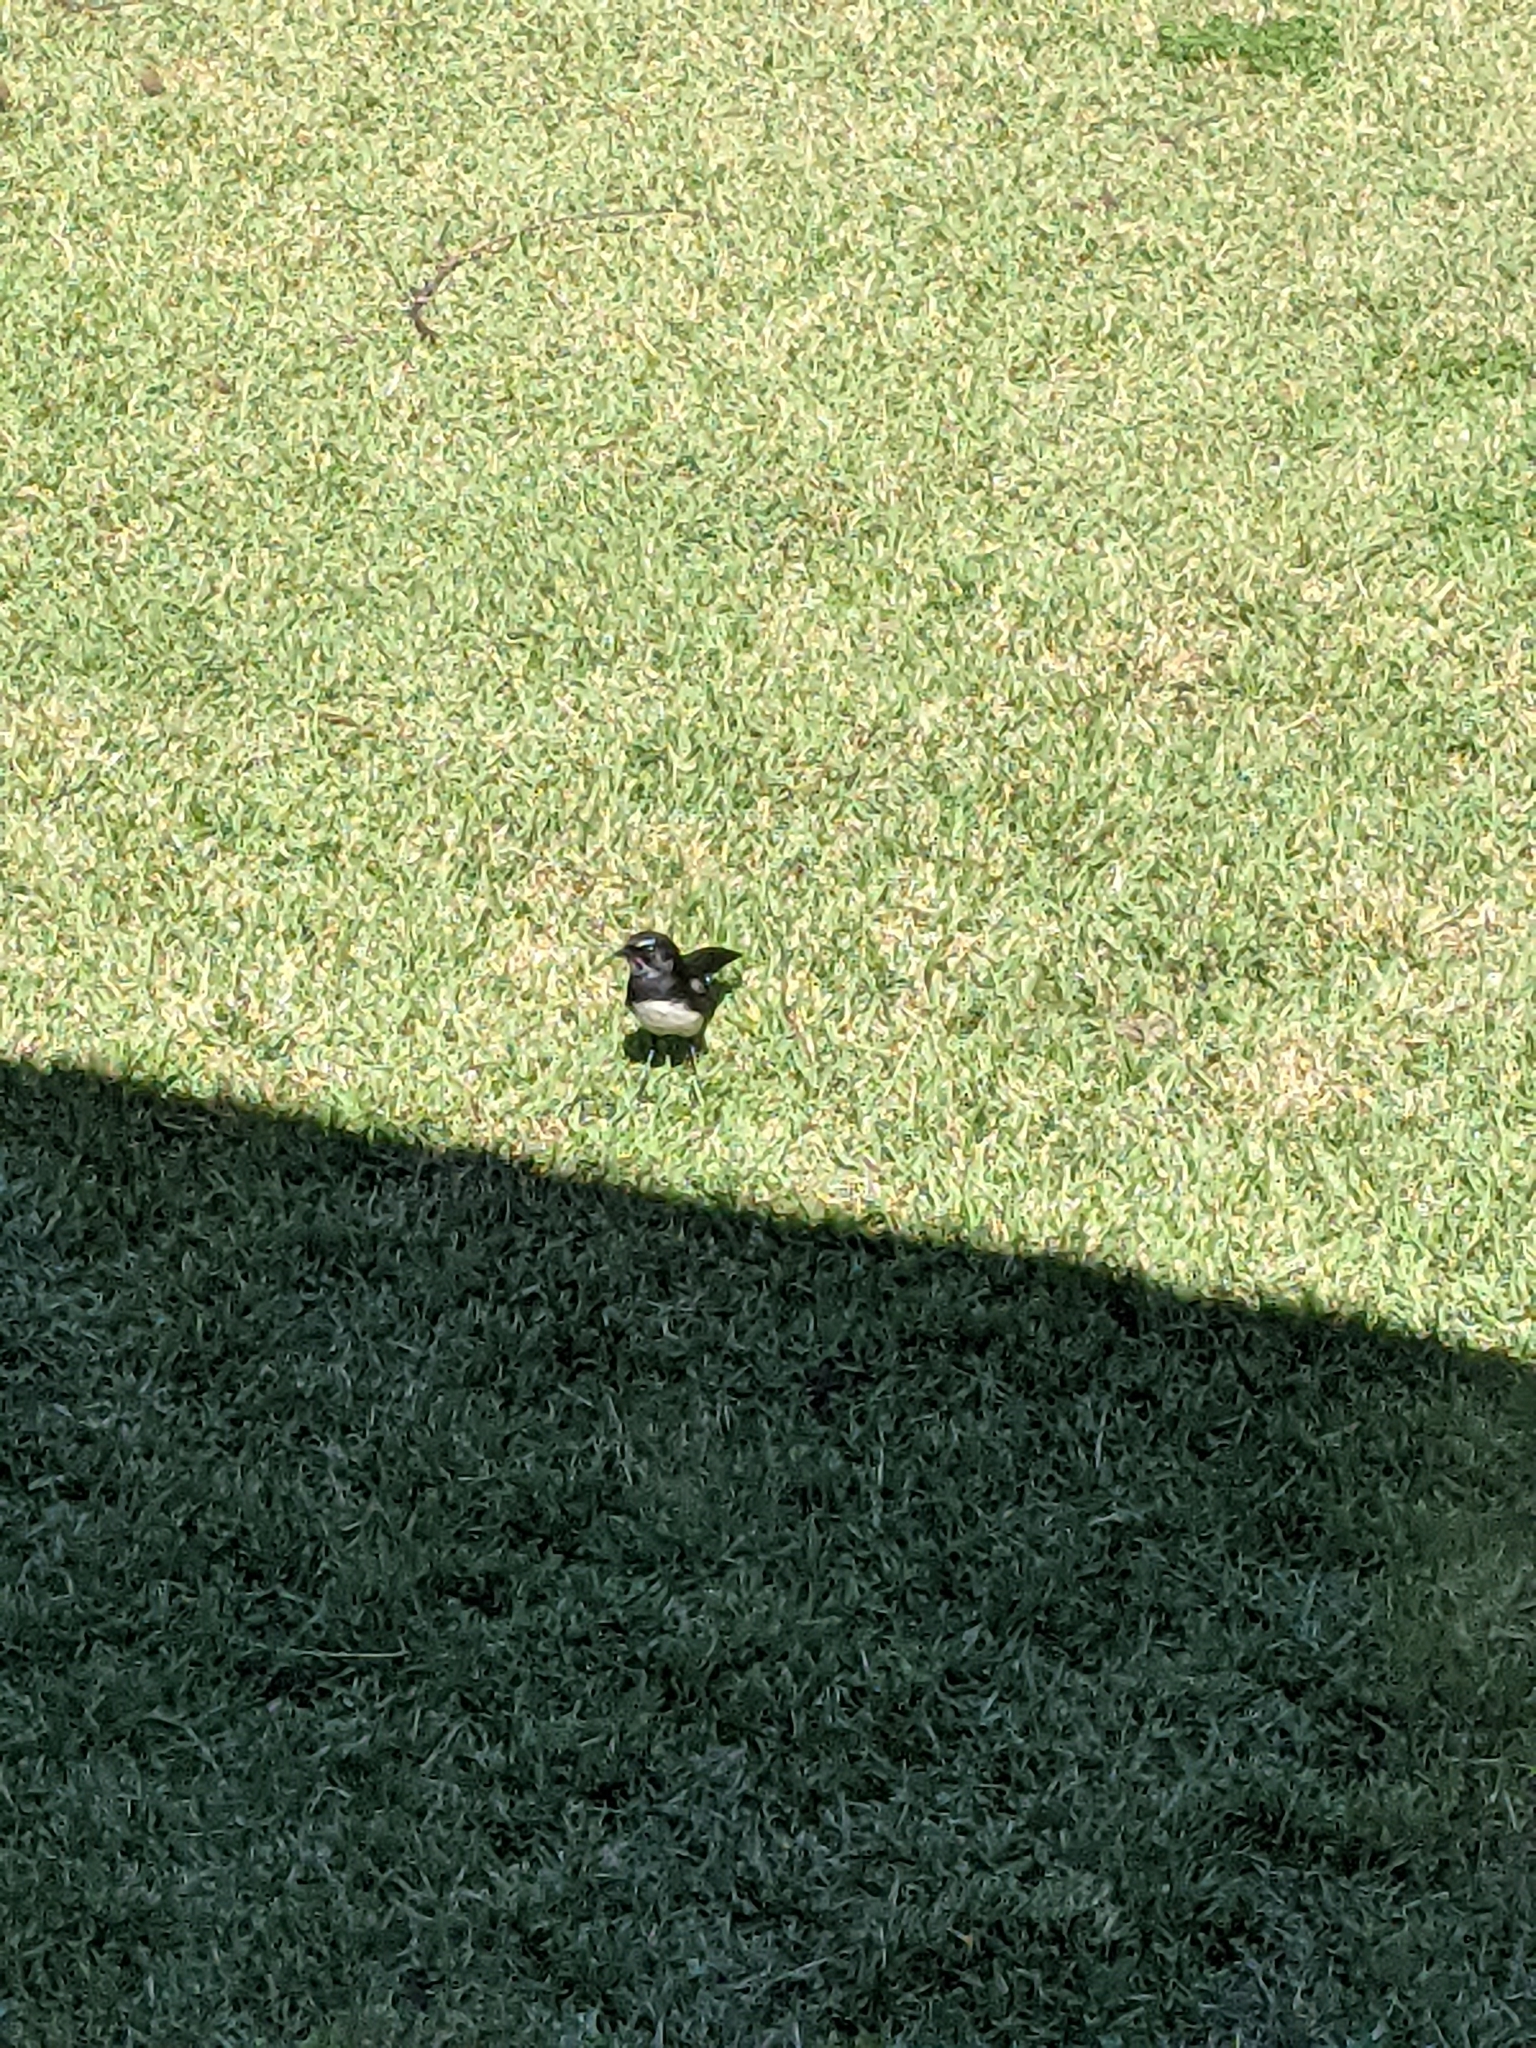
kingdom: Animalia
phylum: Chordata
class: Aves
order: Passeriformes
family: Rhipiduridae
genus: Rhipidura
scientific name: Rhipidura leucophrys
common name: Willie wagtail
